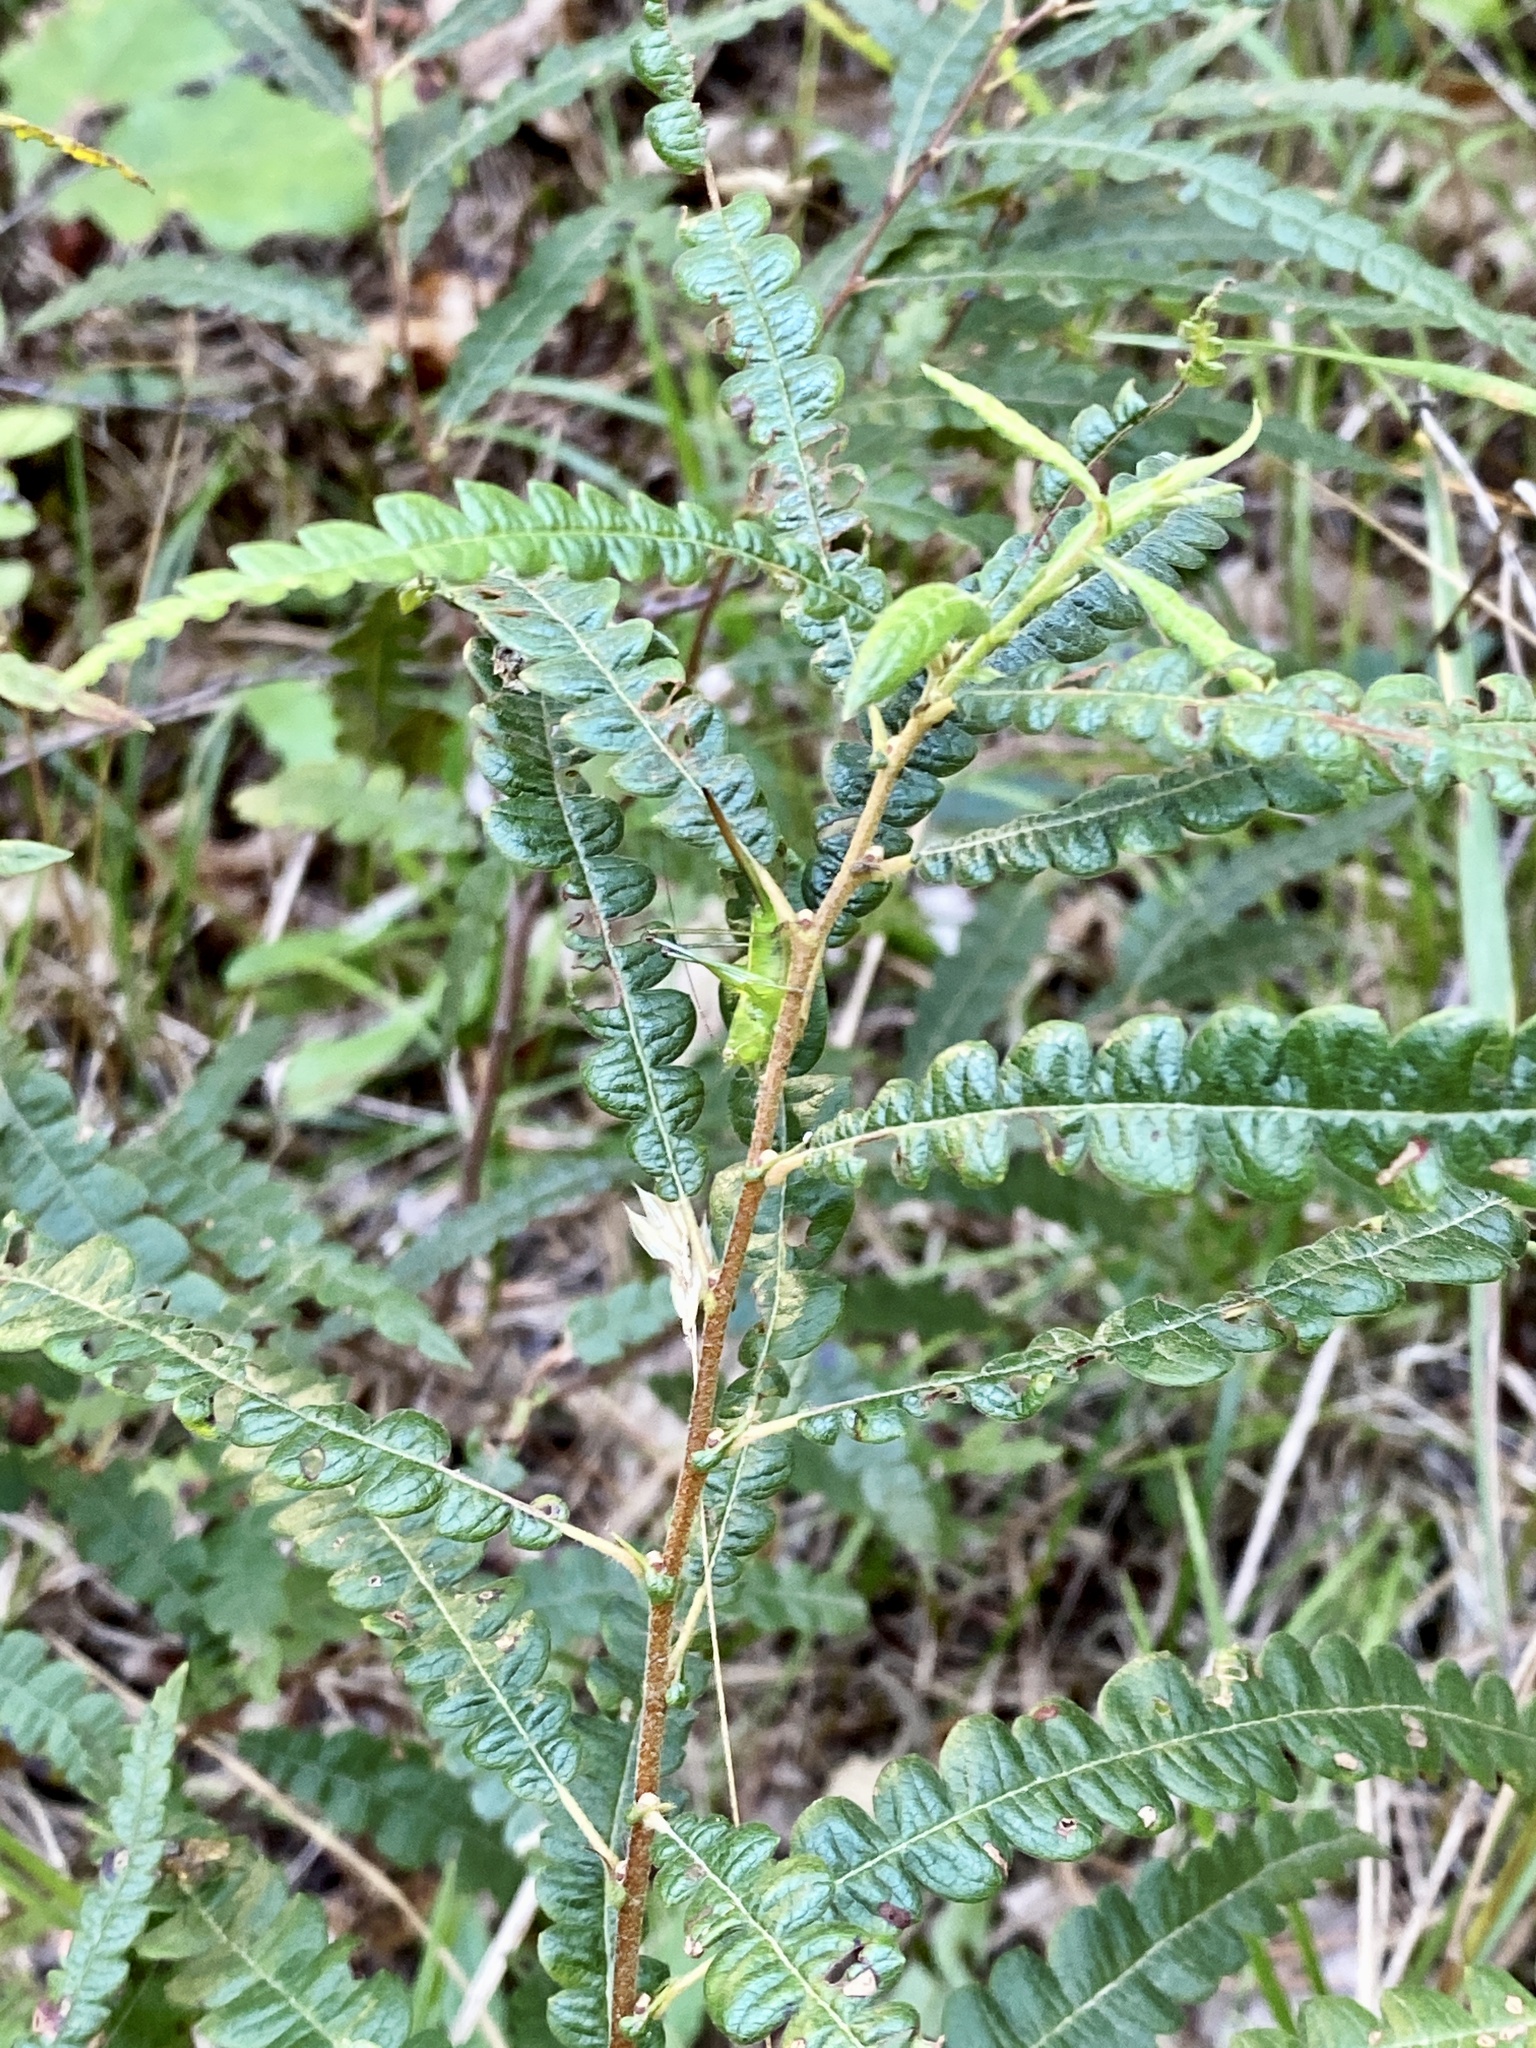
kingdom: Plantae
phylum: Tracheophyta
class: Magnoliopsida
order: Fagales
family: Myricaceae
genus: Comptonia
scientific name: Comptonia peregrina
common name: Sweet-fern
